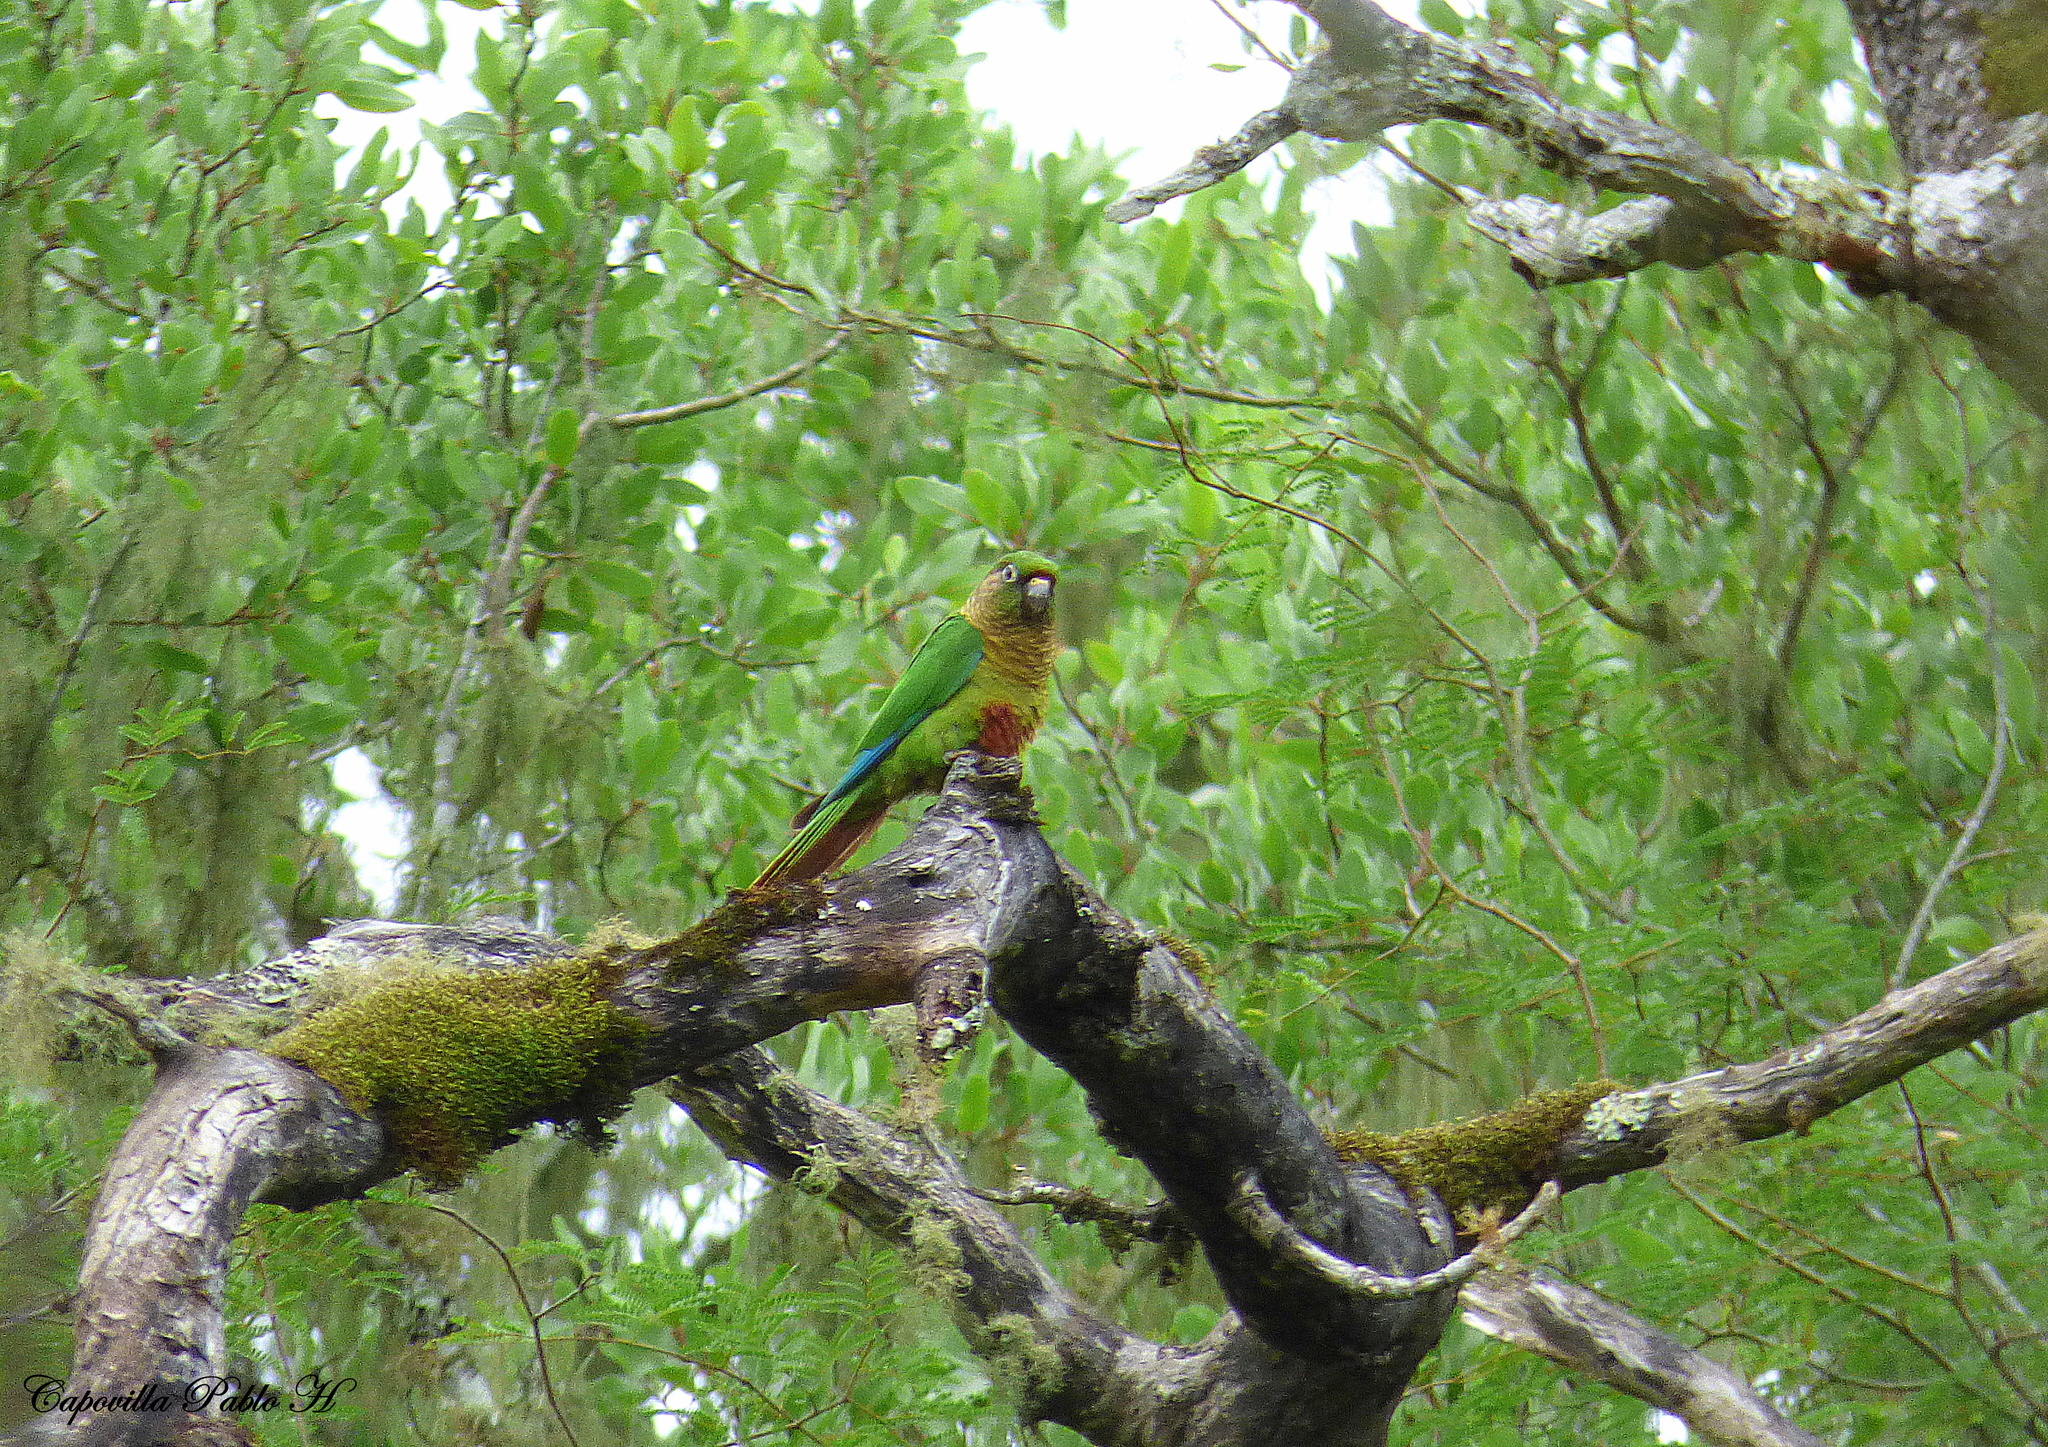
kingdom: Animalia
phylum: Chordata
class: Aves
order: Psittaciformes
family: Psittacidae
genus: Pyrrhura
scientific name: Pyrrhura frontalis
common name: Maroon-bellied parakeet
